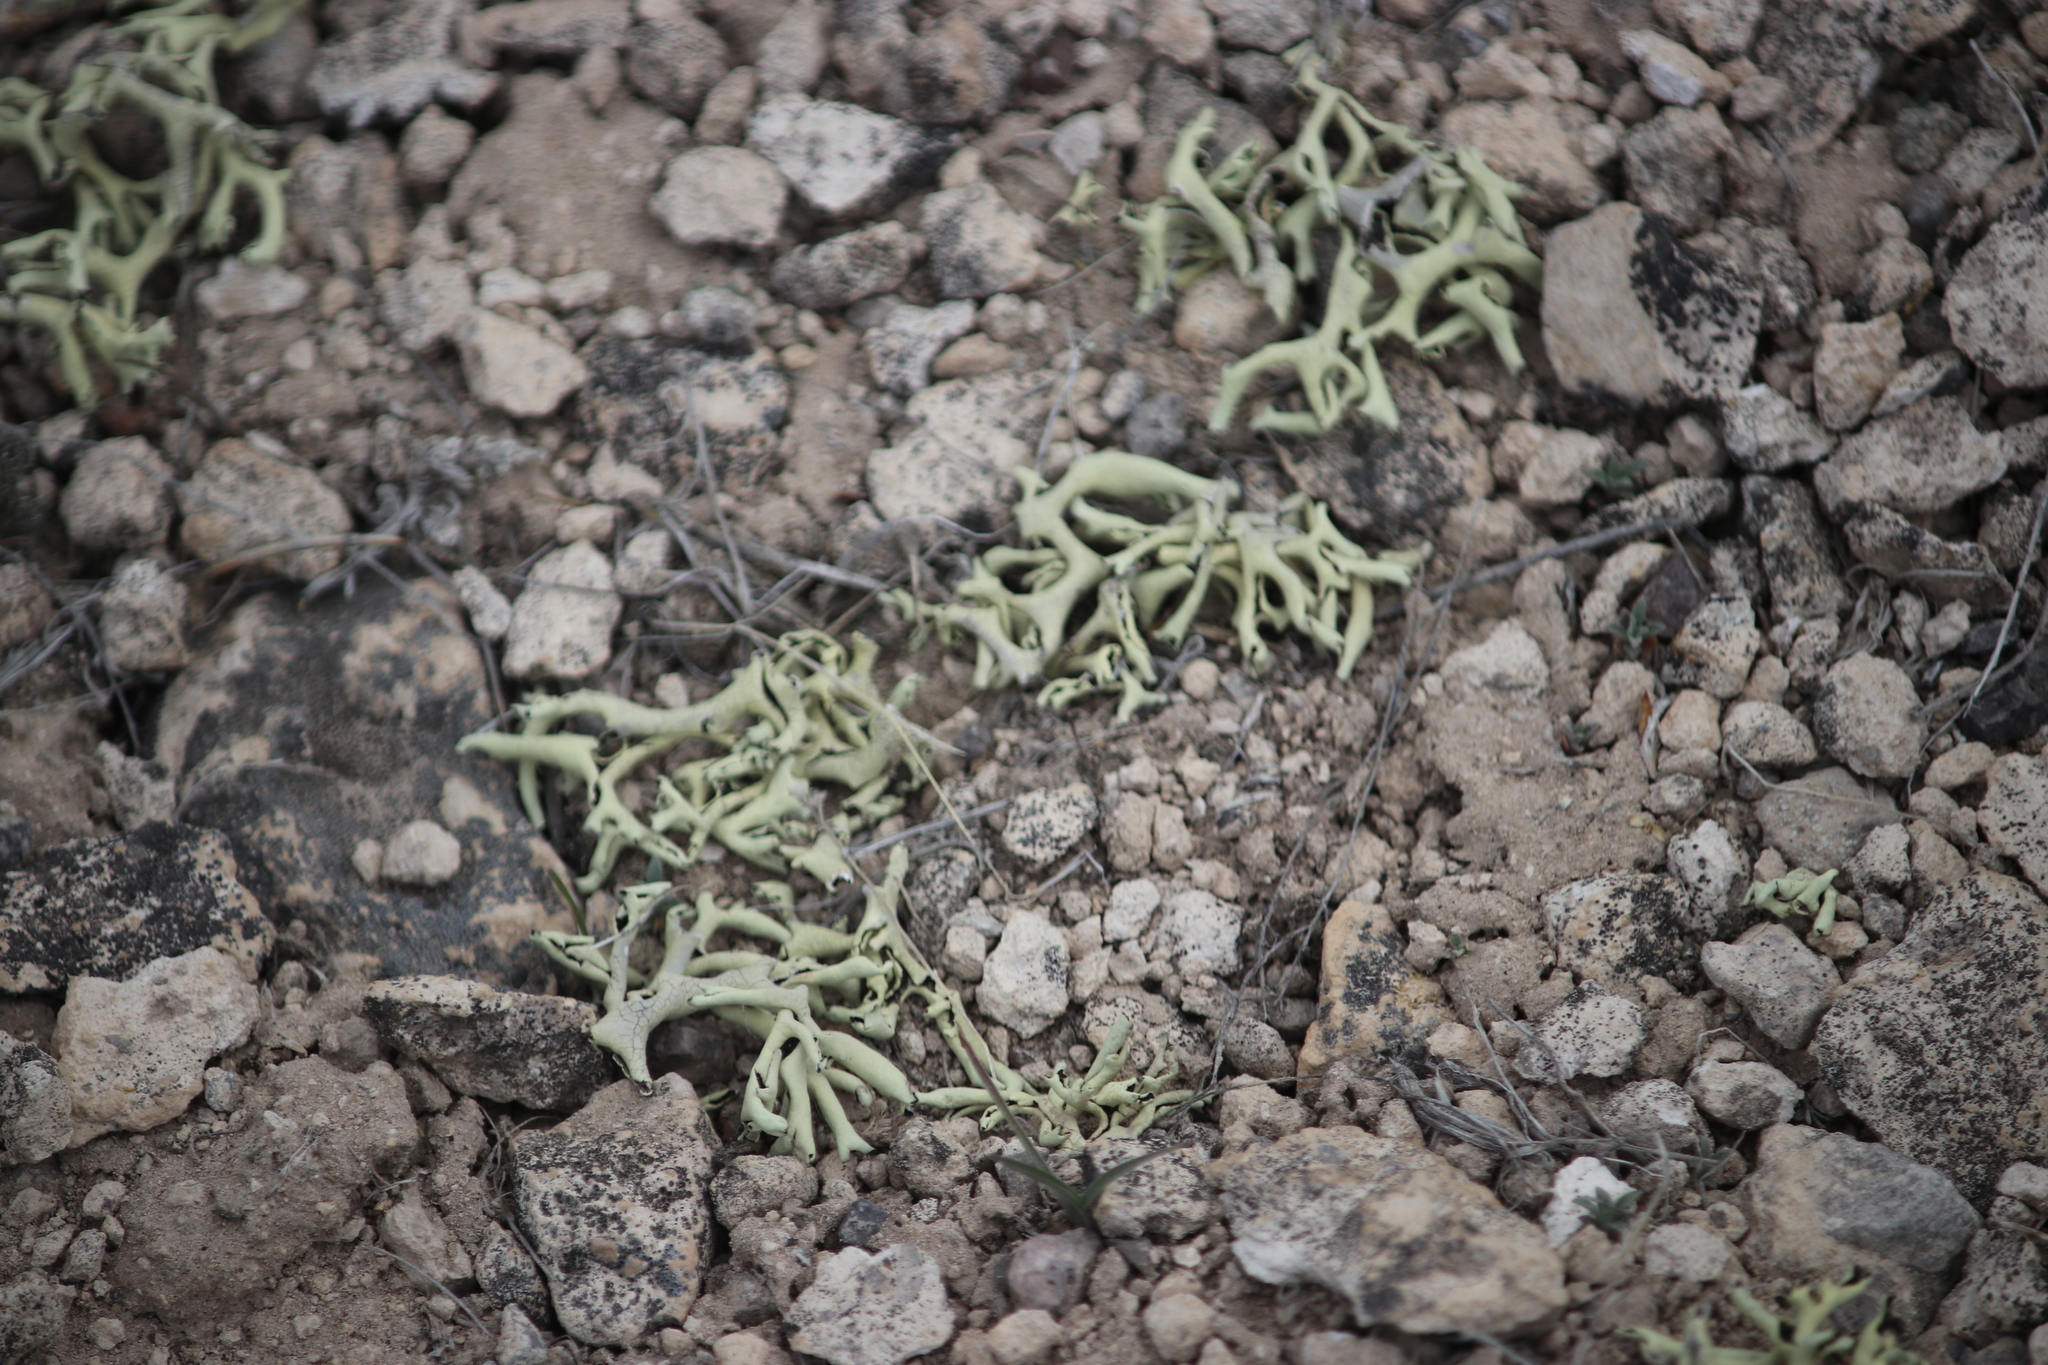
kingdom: Fungi
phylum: Ascomycota
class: Lecanoromycetes
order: Lecanorales
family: Parmeliaceae
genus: Xanthoparmelia
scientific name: Xanthoparmelia chlorochroa
